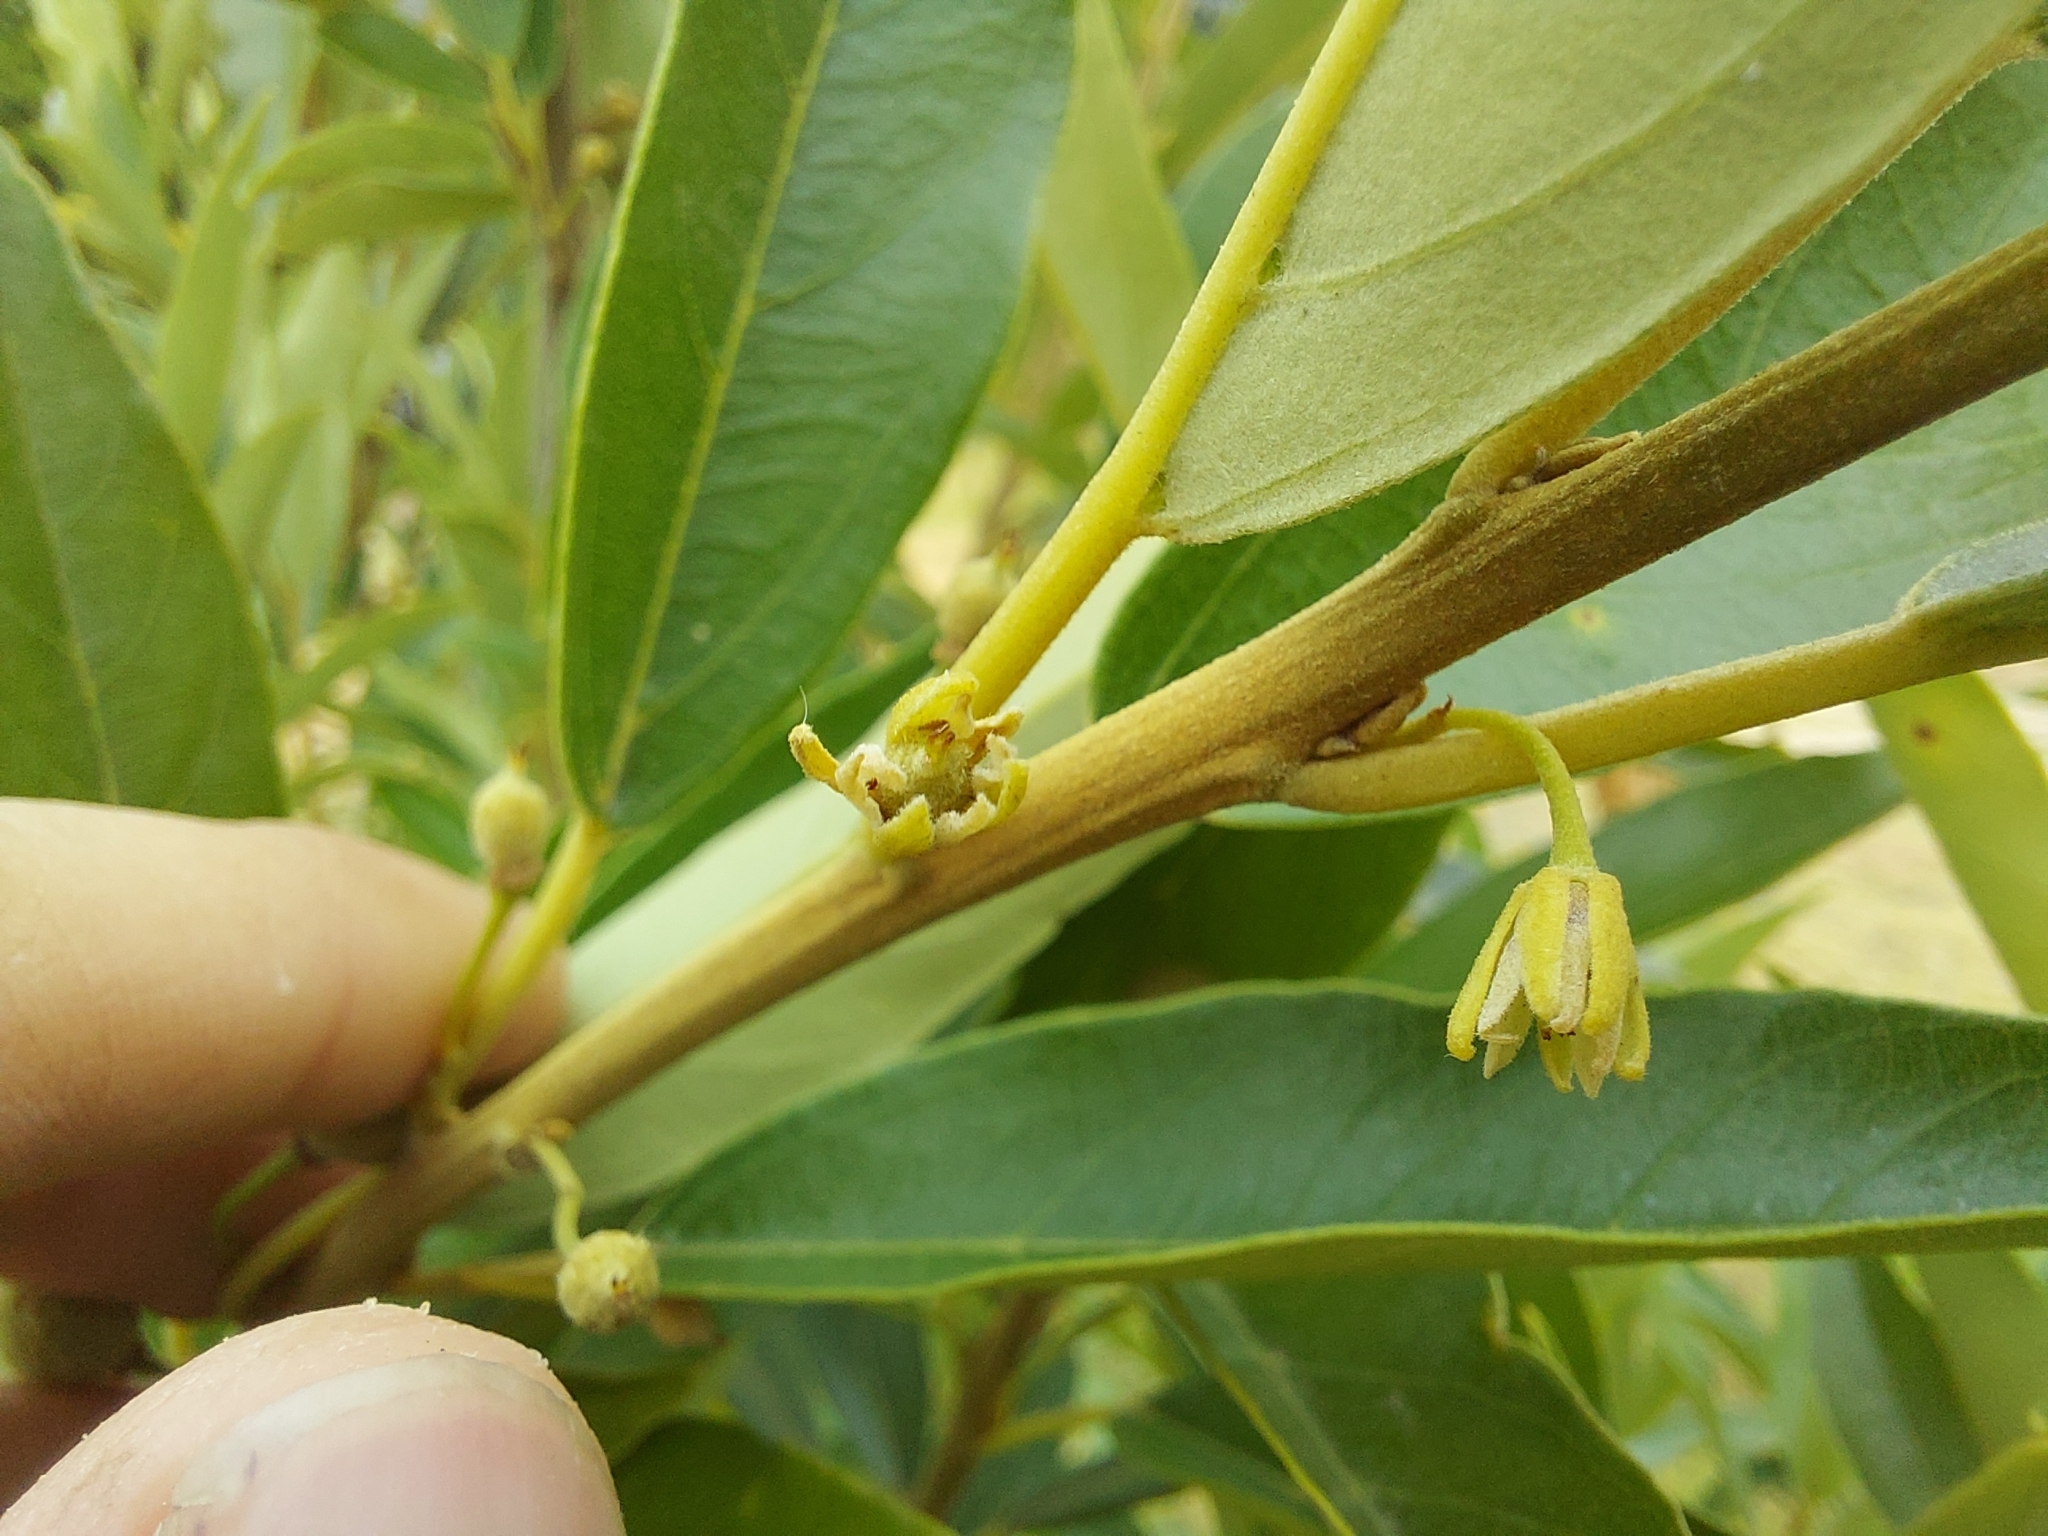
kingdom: Plantae
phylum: Tracheophyta
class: Magnoliopsida
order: Malpighiales
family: Achariaceae
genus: Kiggelaria
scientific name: Kiggelaria africana
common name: Wild peach
